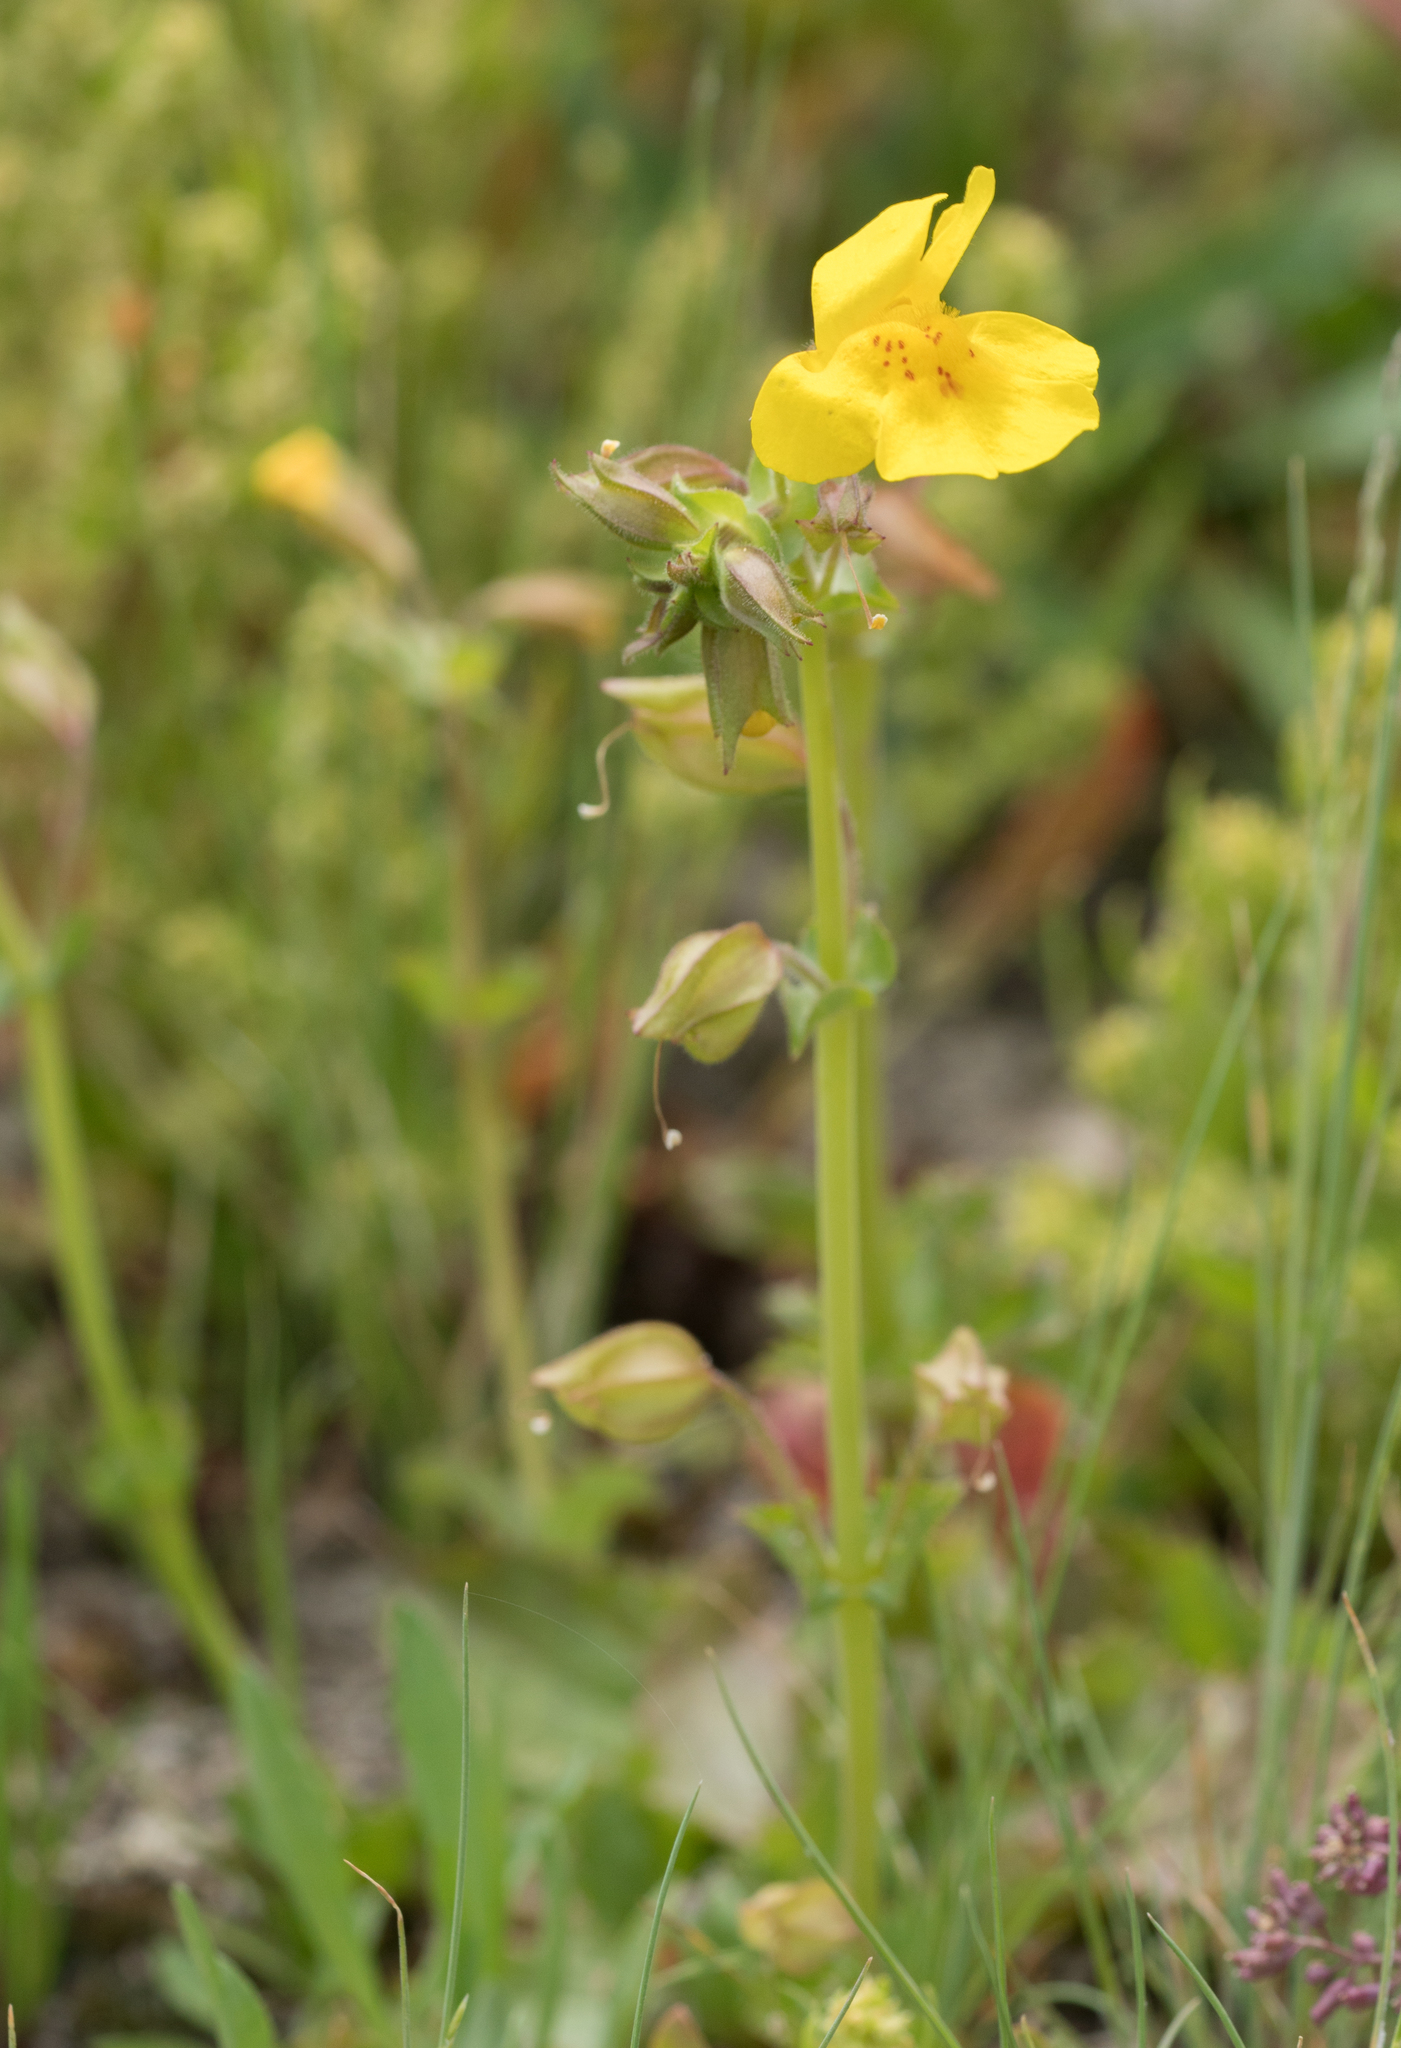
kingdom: Plantae
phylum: Tracheophyta
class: Magnoliopsida
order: Lamiales
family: Phrymaceae
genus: Erythranthe
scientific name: Erythranthe guttata
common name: Monkeyflower
